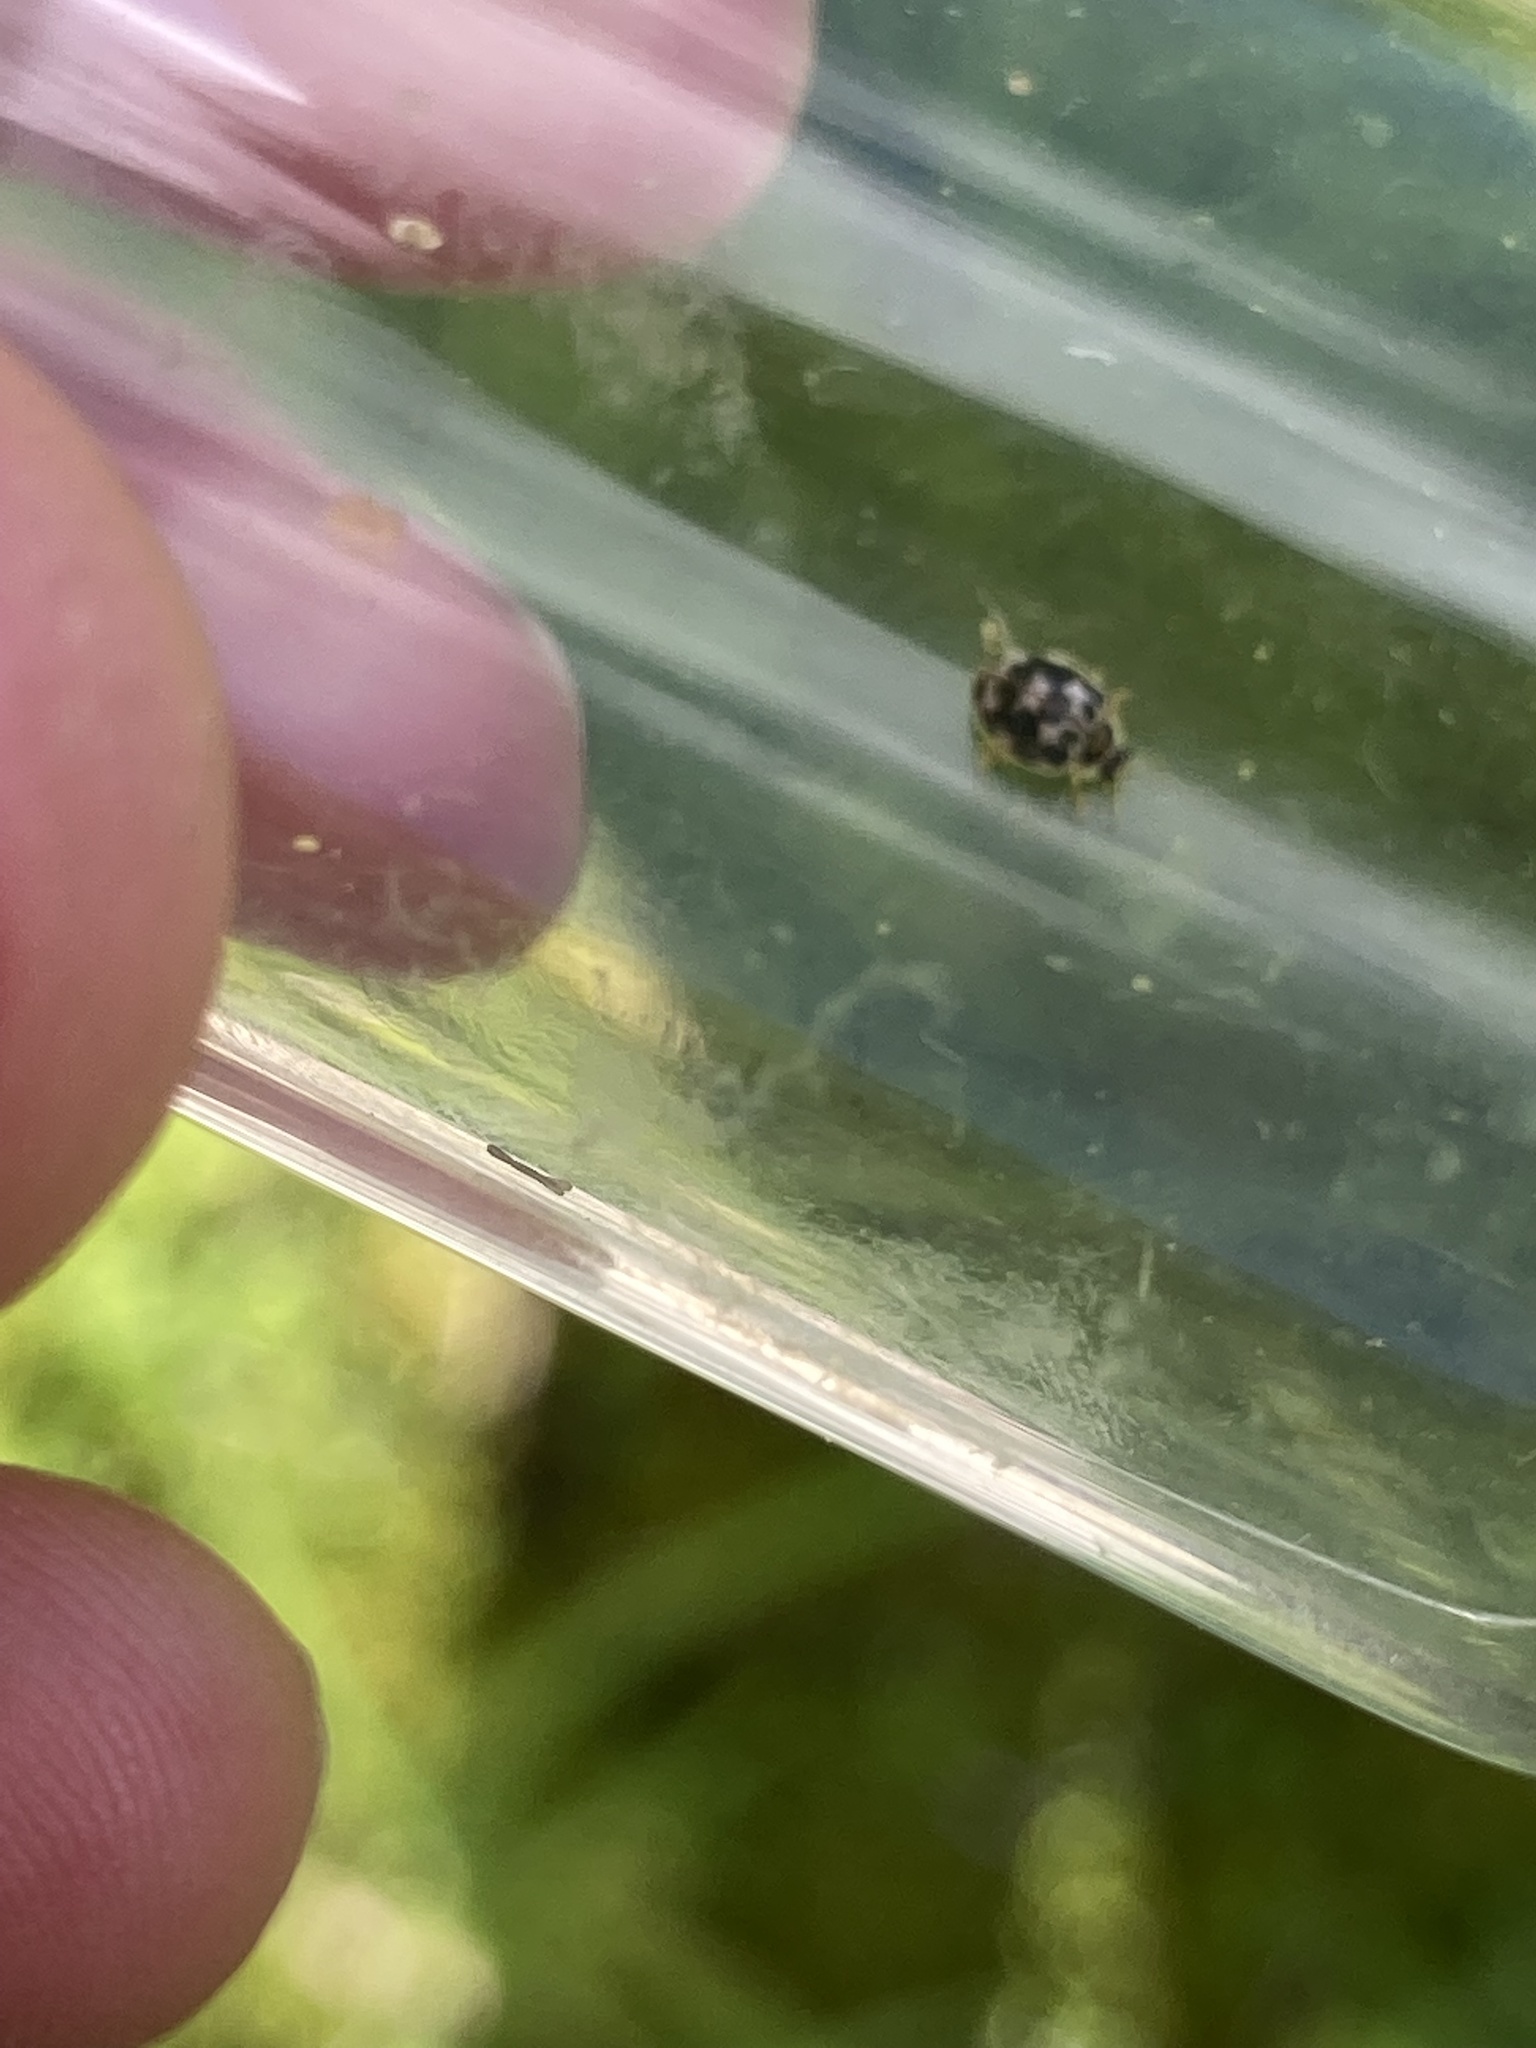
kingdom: Animalia
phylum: Arthropoda
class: Insecta
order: Coleoptera
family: Coccinellidae
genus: Psyllobora
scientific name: Psyllobora vigintimaculata
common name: Ladybird beetle
